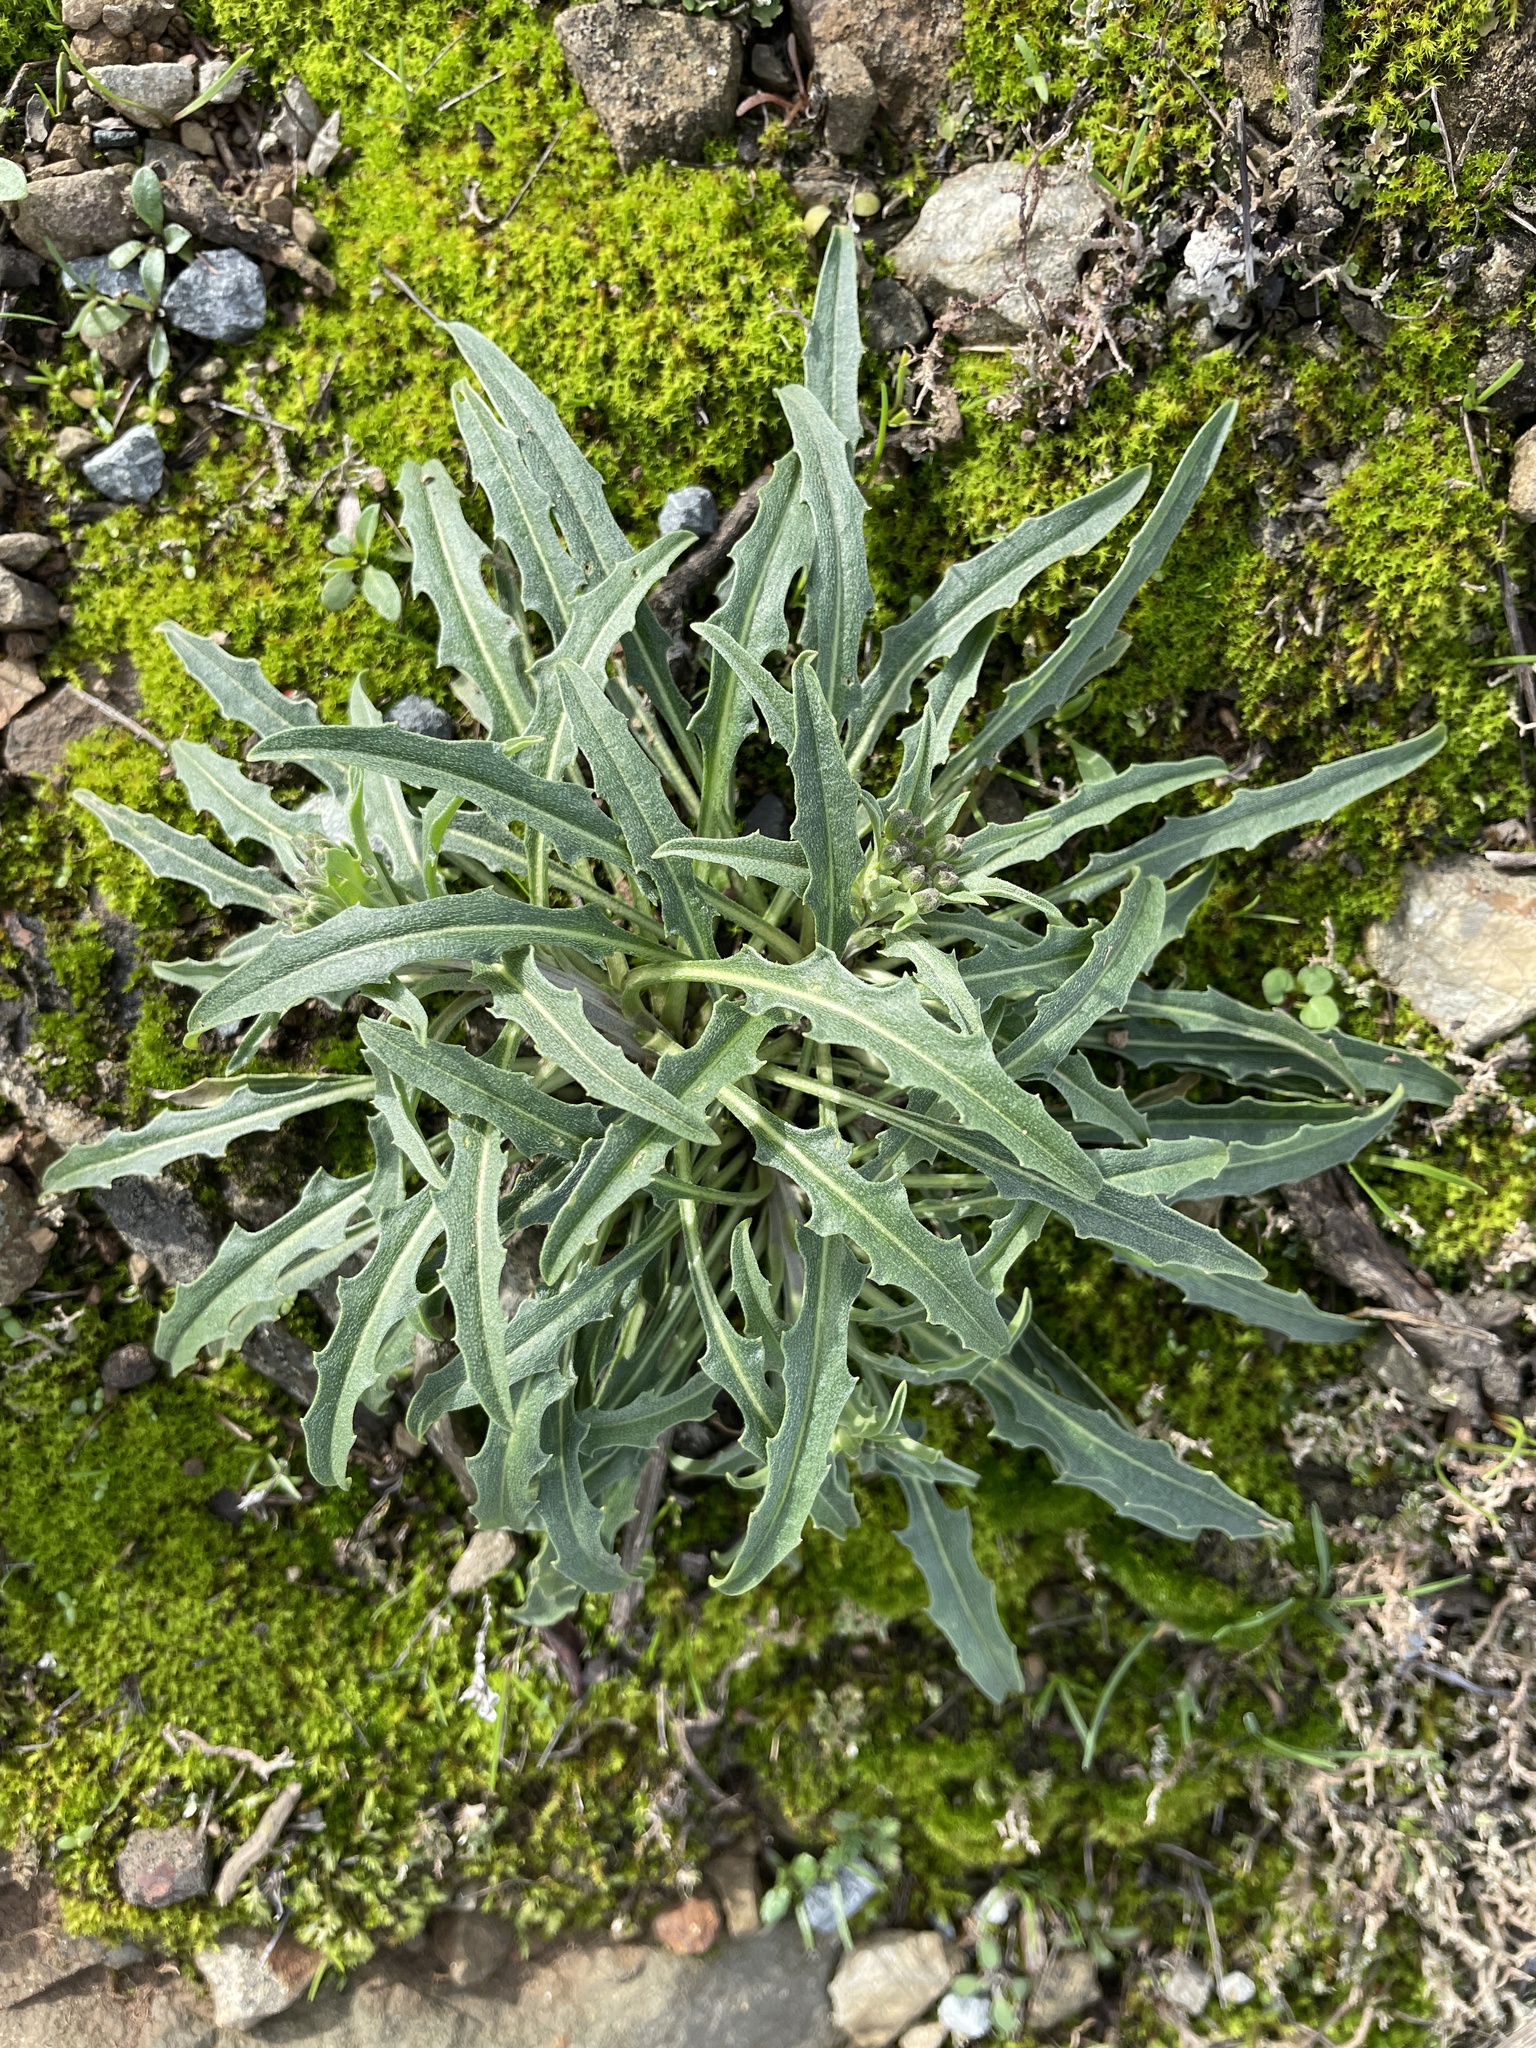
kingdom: Plantae
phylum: Tracheophyta
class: Magnoliopsida
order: Brassicales
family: Brassicaceae
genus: Erysimum
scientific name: Erysimum franciscanum
